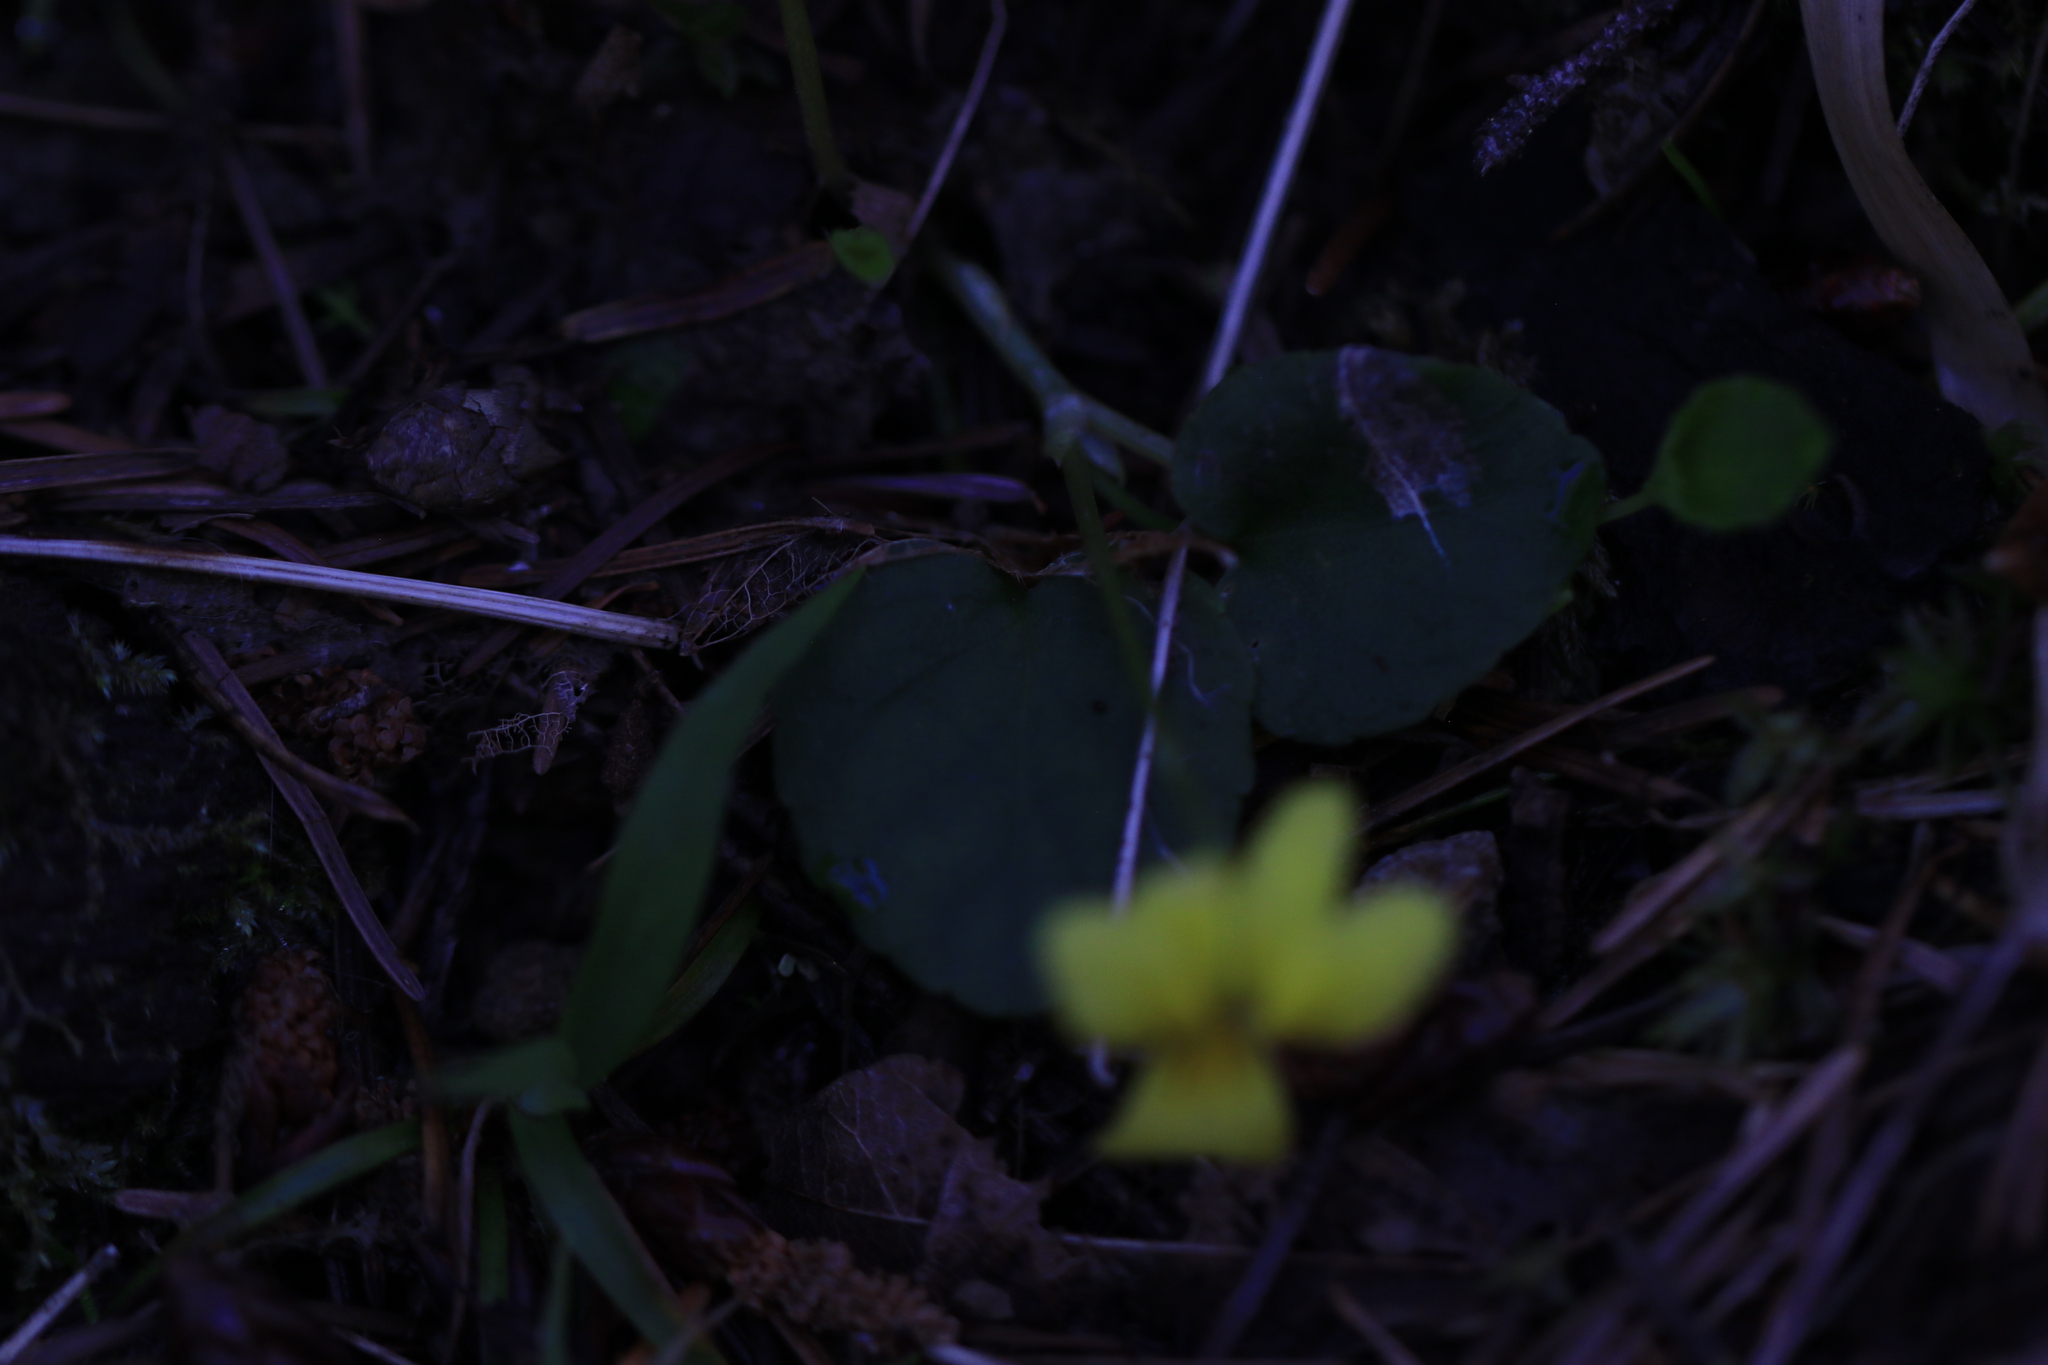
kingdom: Plantae
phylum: Tracheophyta
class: Magnoliopsida
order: Malpighiales
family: Violaceae
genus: Viola
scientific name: Viola sempervirens
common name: Evergreen violet
